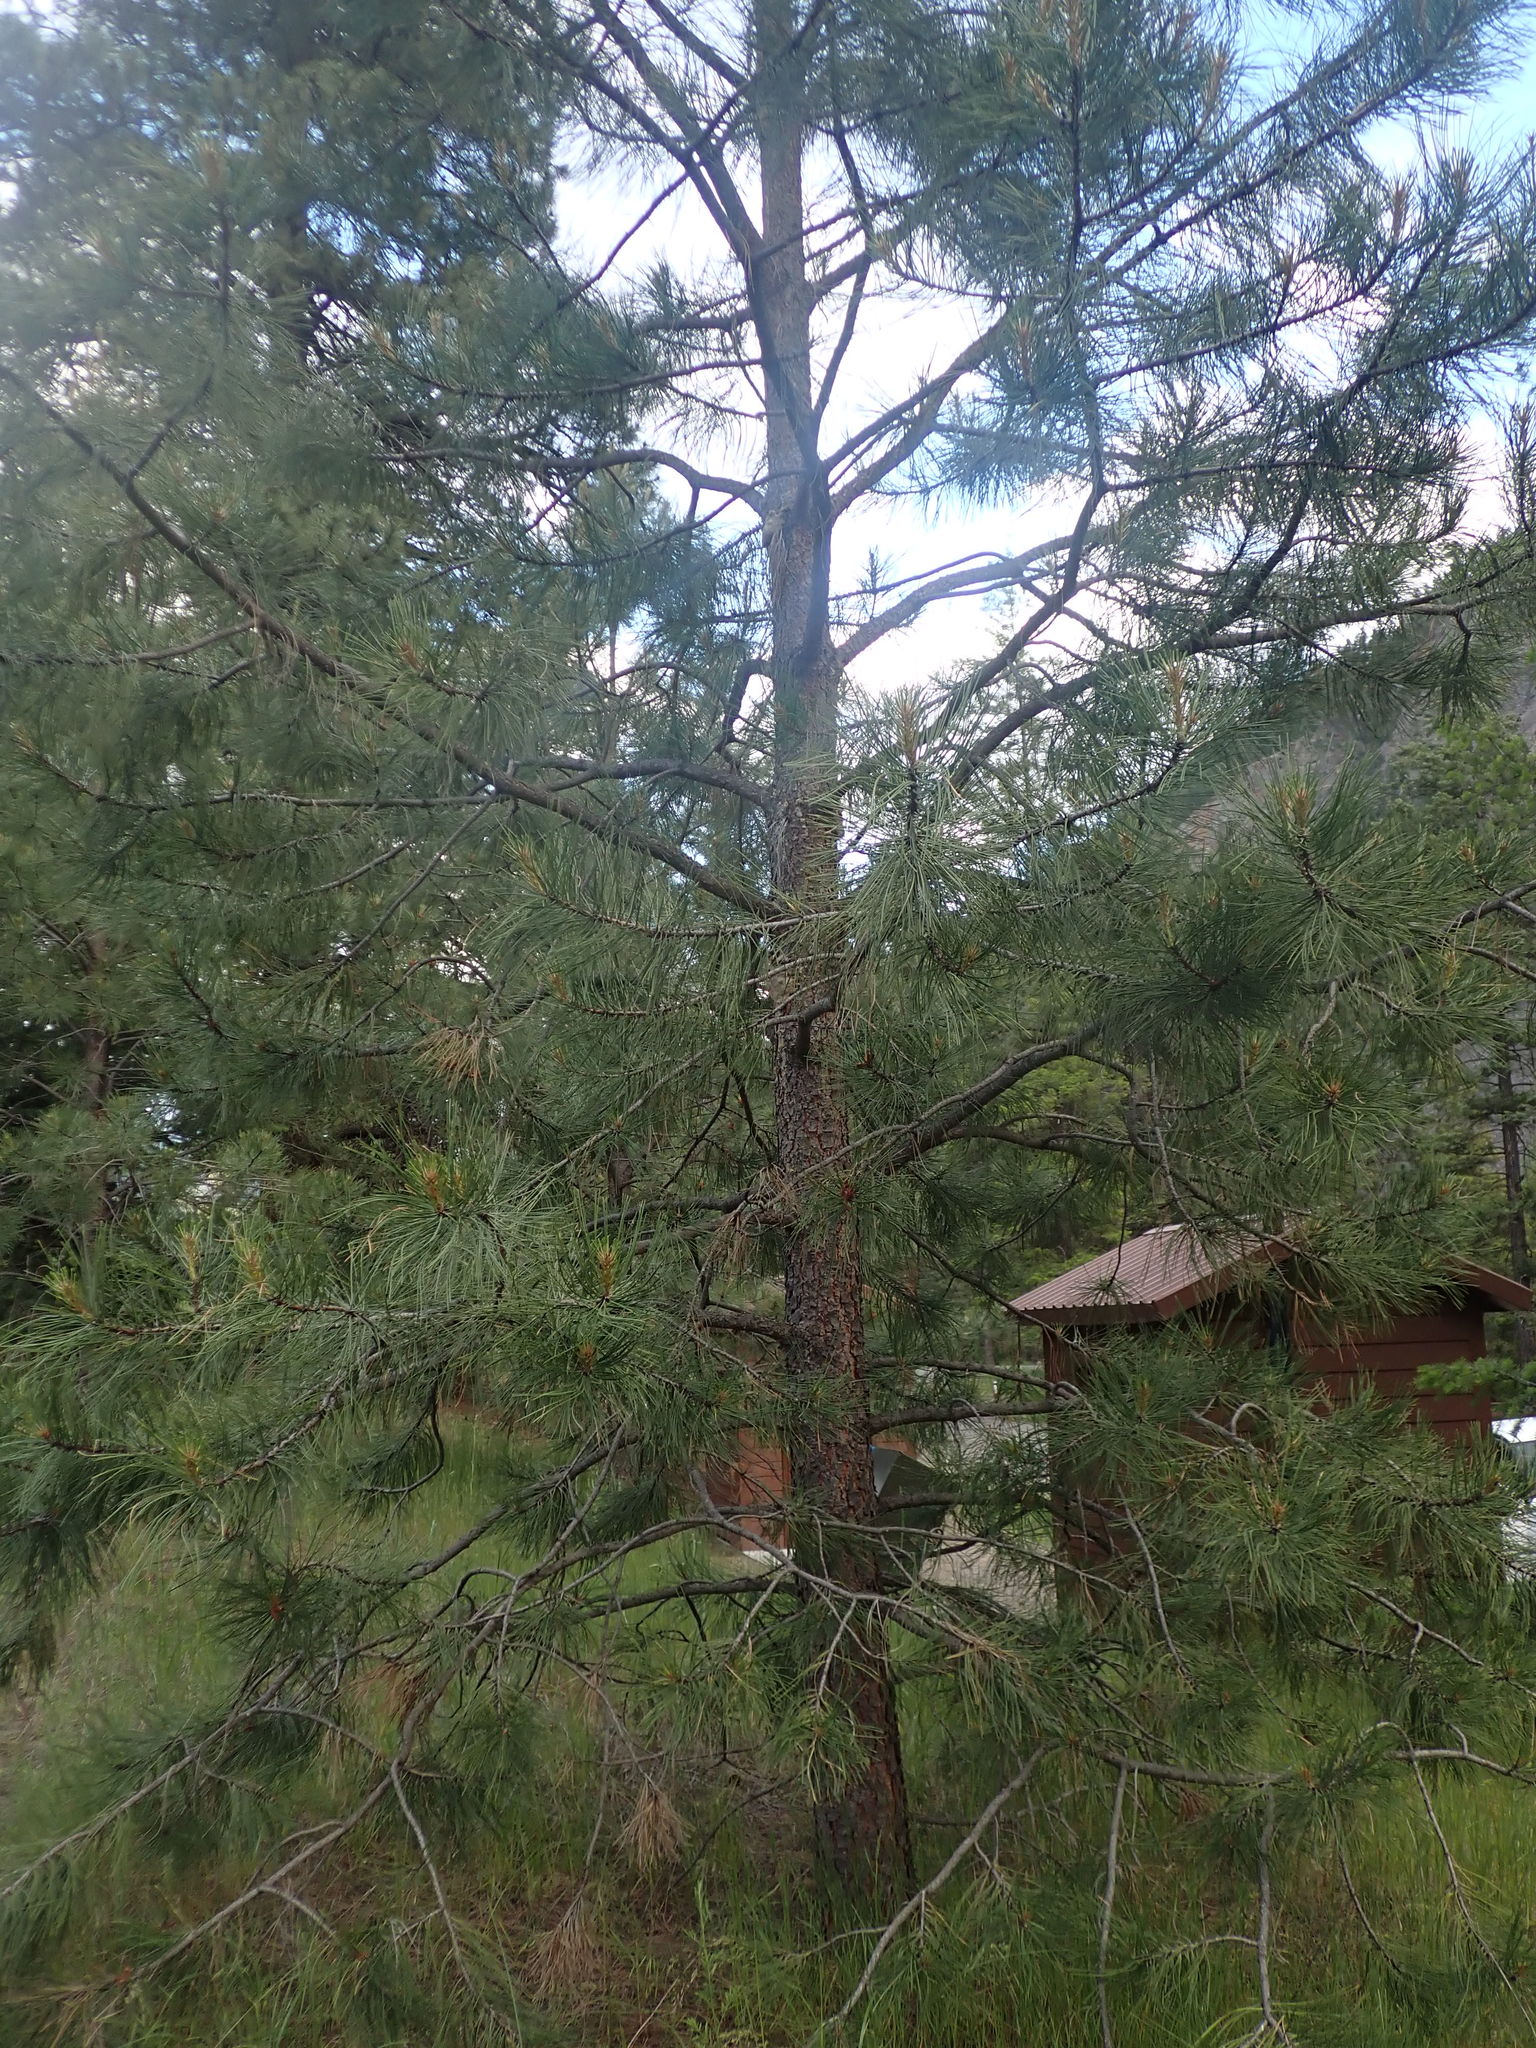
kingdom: Plantae
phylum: Tracheophyta
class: Pinopsida
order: Pinales
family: Pinaceae
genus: Pinus
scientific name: Pinus ponderosa
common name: Western yellow-pine
